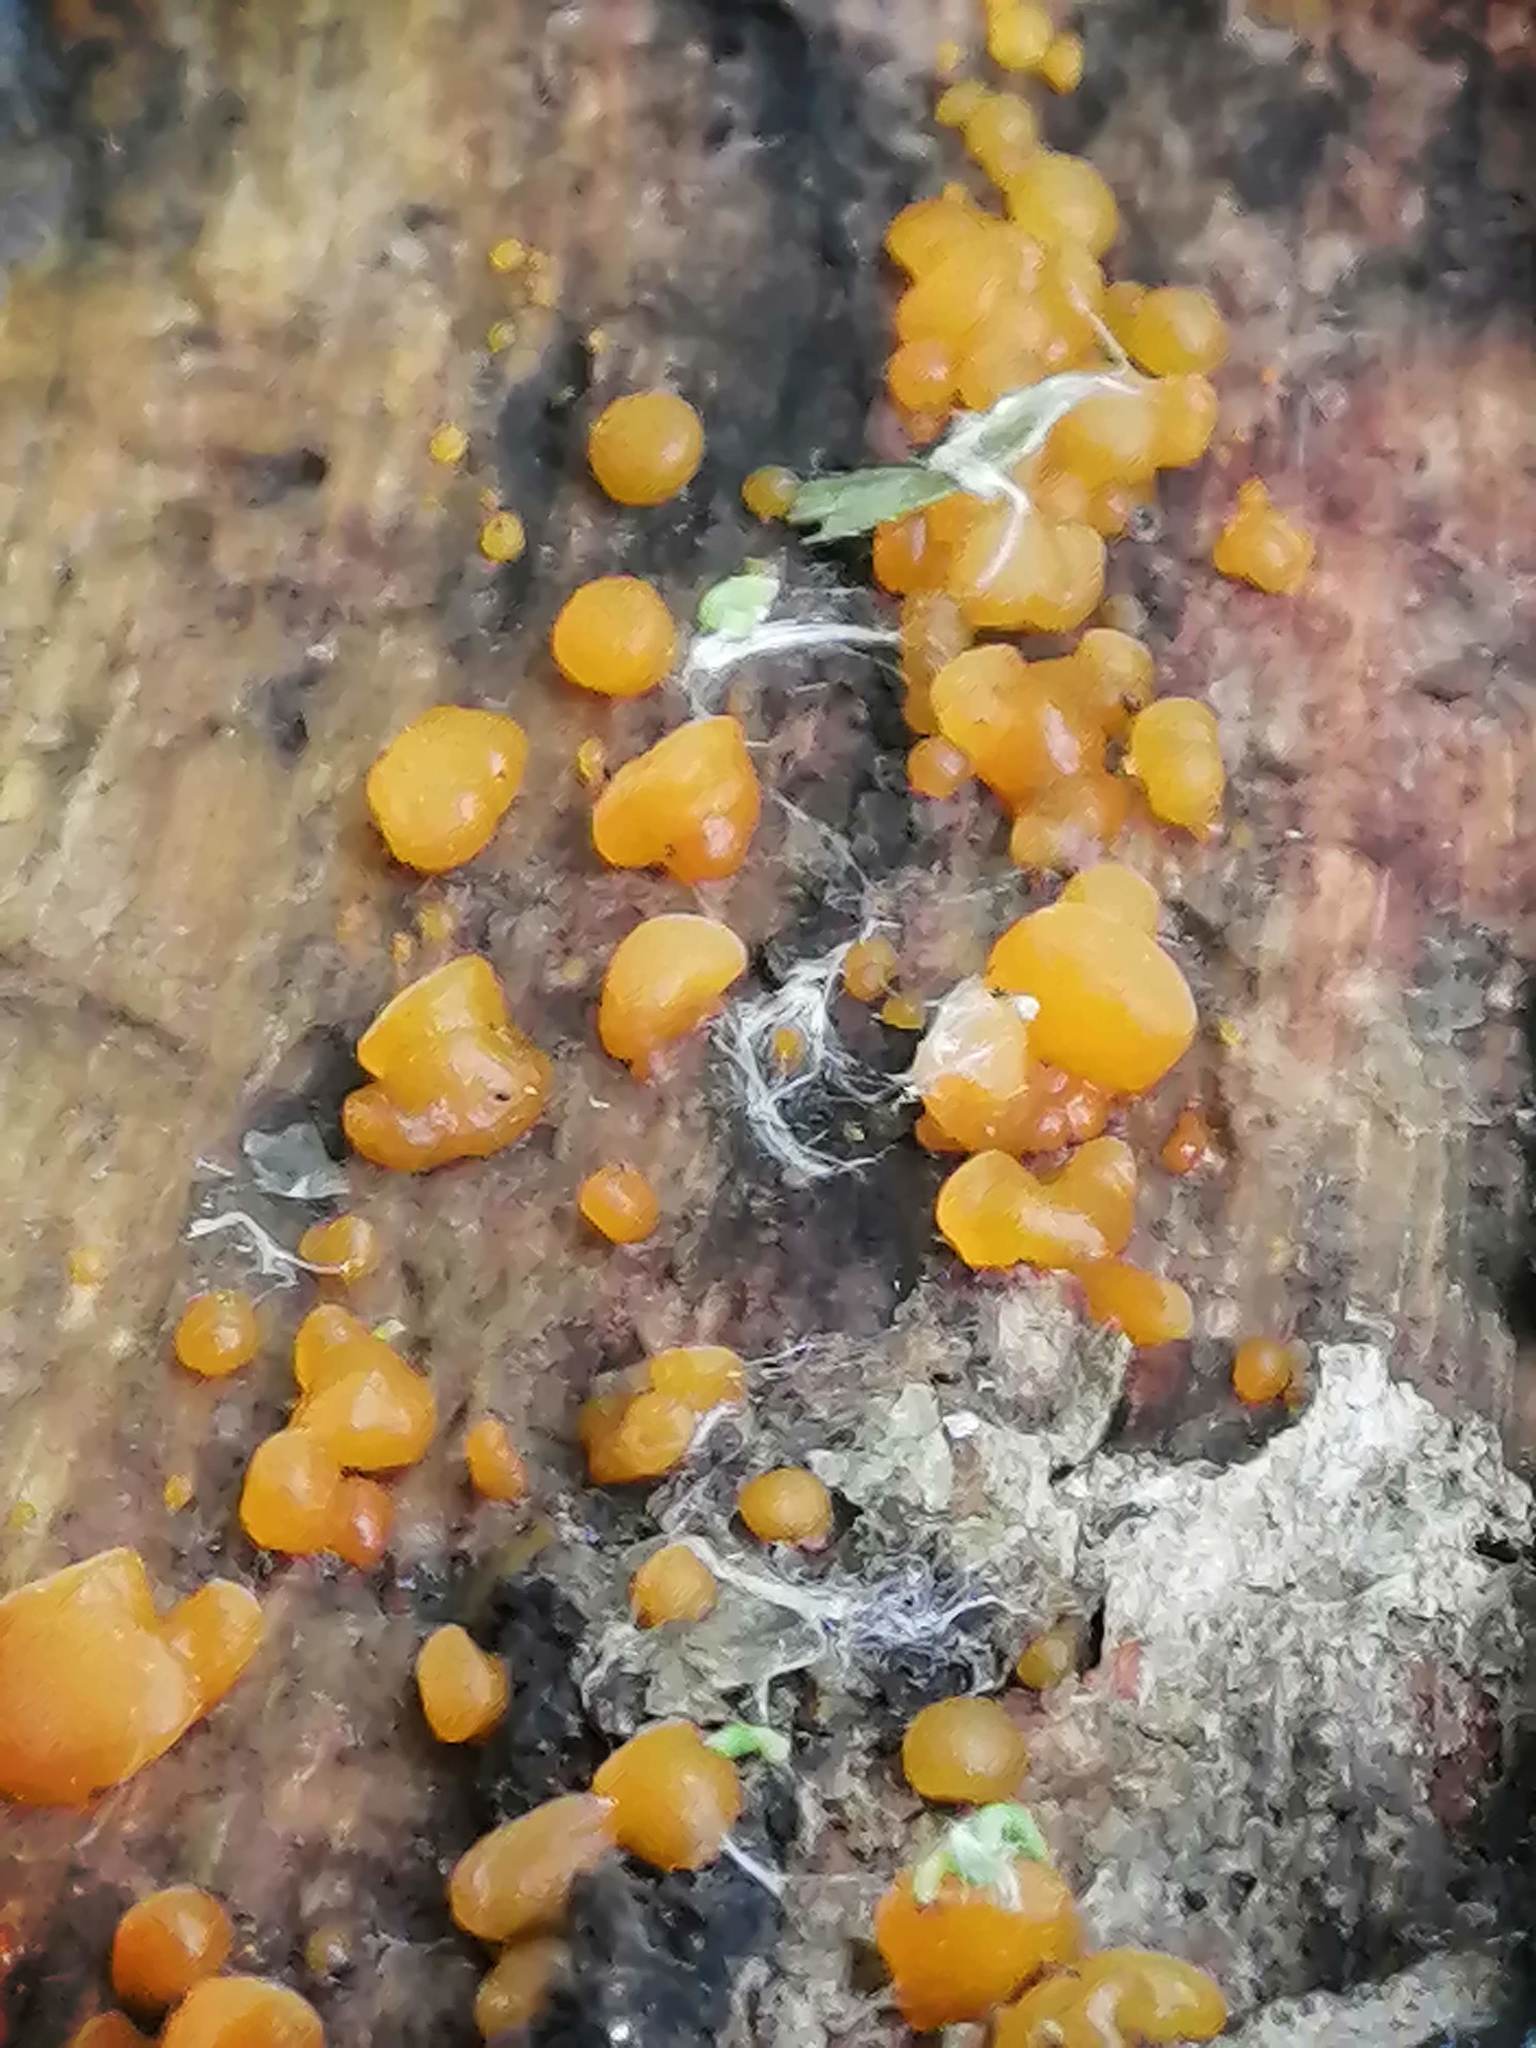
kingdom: Fungi
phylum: Basidiomycota
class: Dacrymycetes
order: Dacrymycetales
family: Dacrymycetaceae
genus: Dacrymyces
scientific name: Dacrymyces chrysospermus
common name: Orange jelly spot
